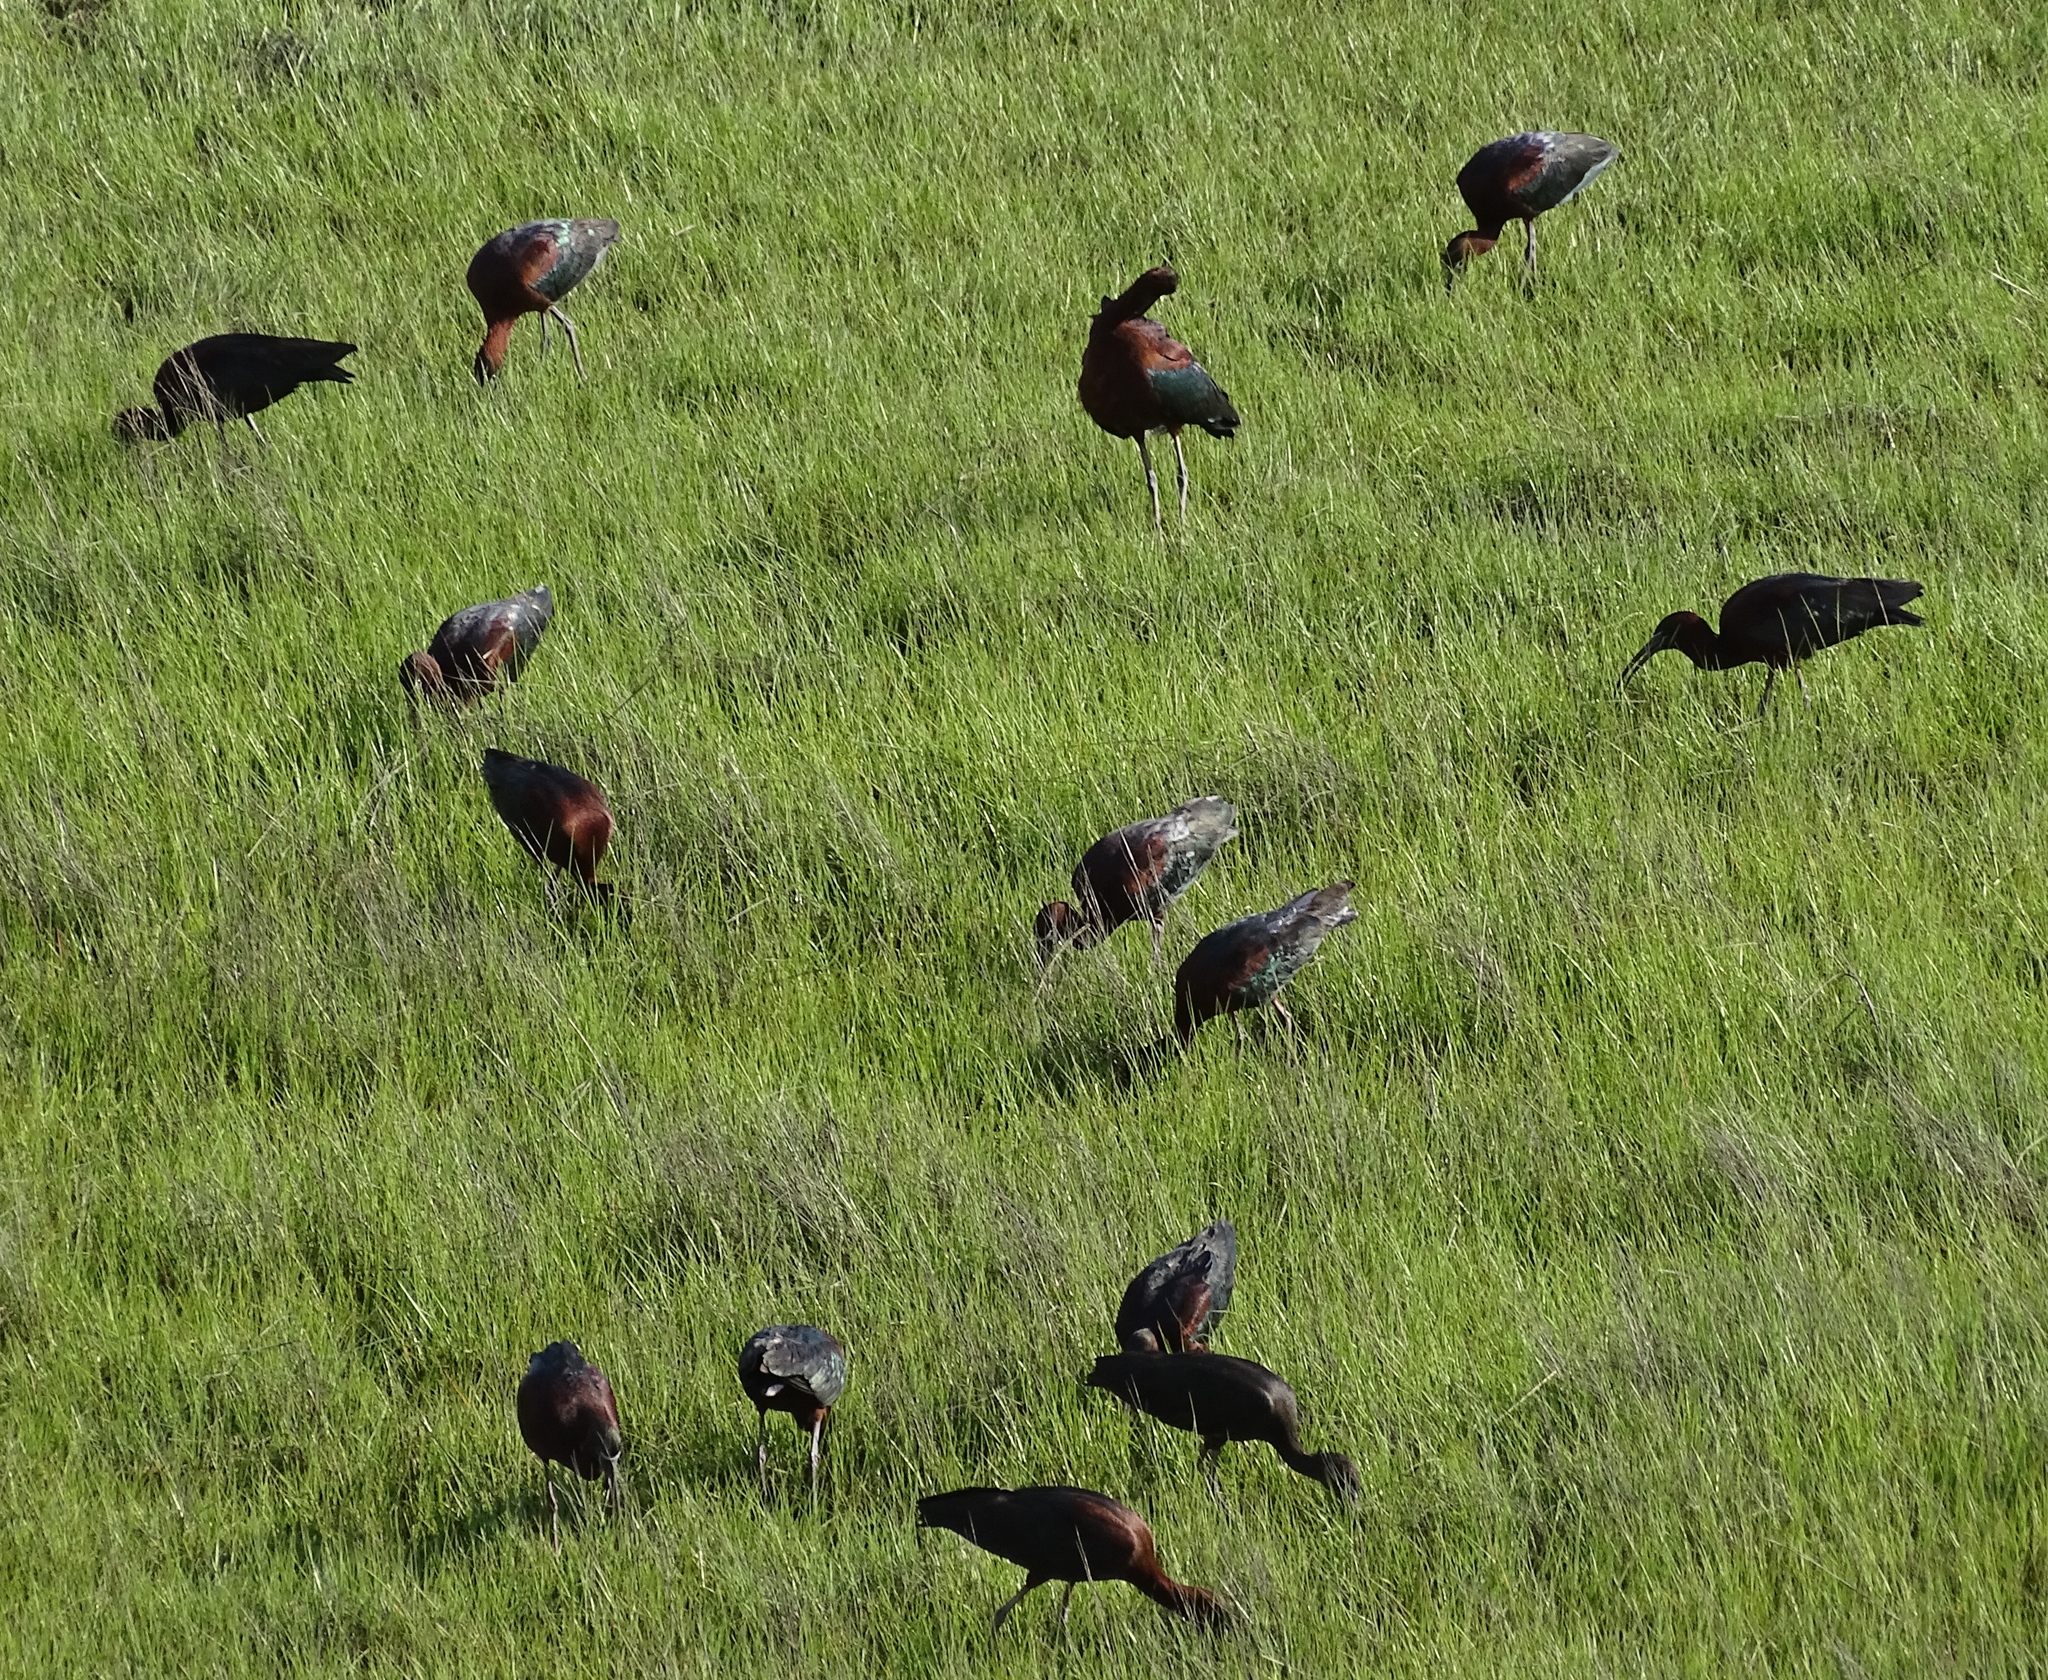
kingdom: Animalia
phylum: Chordata
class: Aves
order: Pelecaniformes
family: Threskiornithidae
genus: Plegadis
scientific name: Plegadis falcinellus
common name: Glossy ibis
